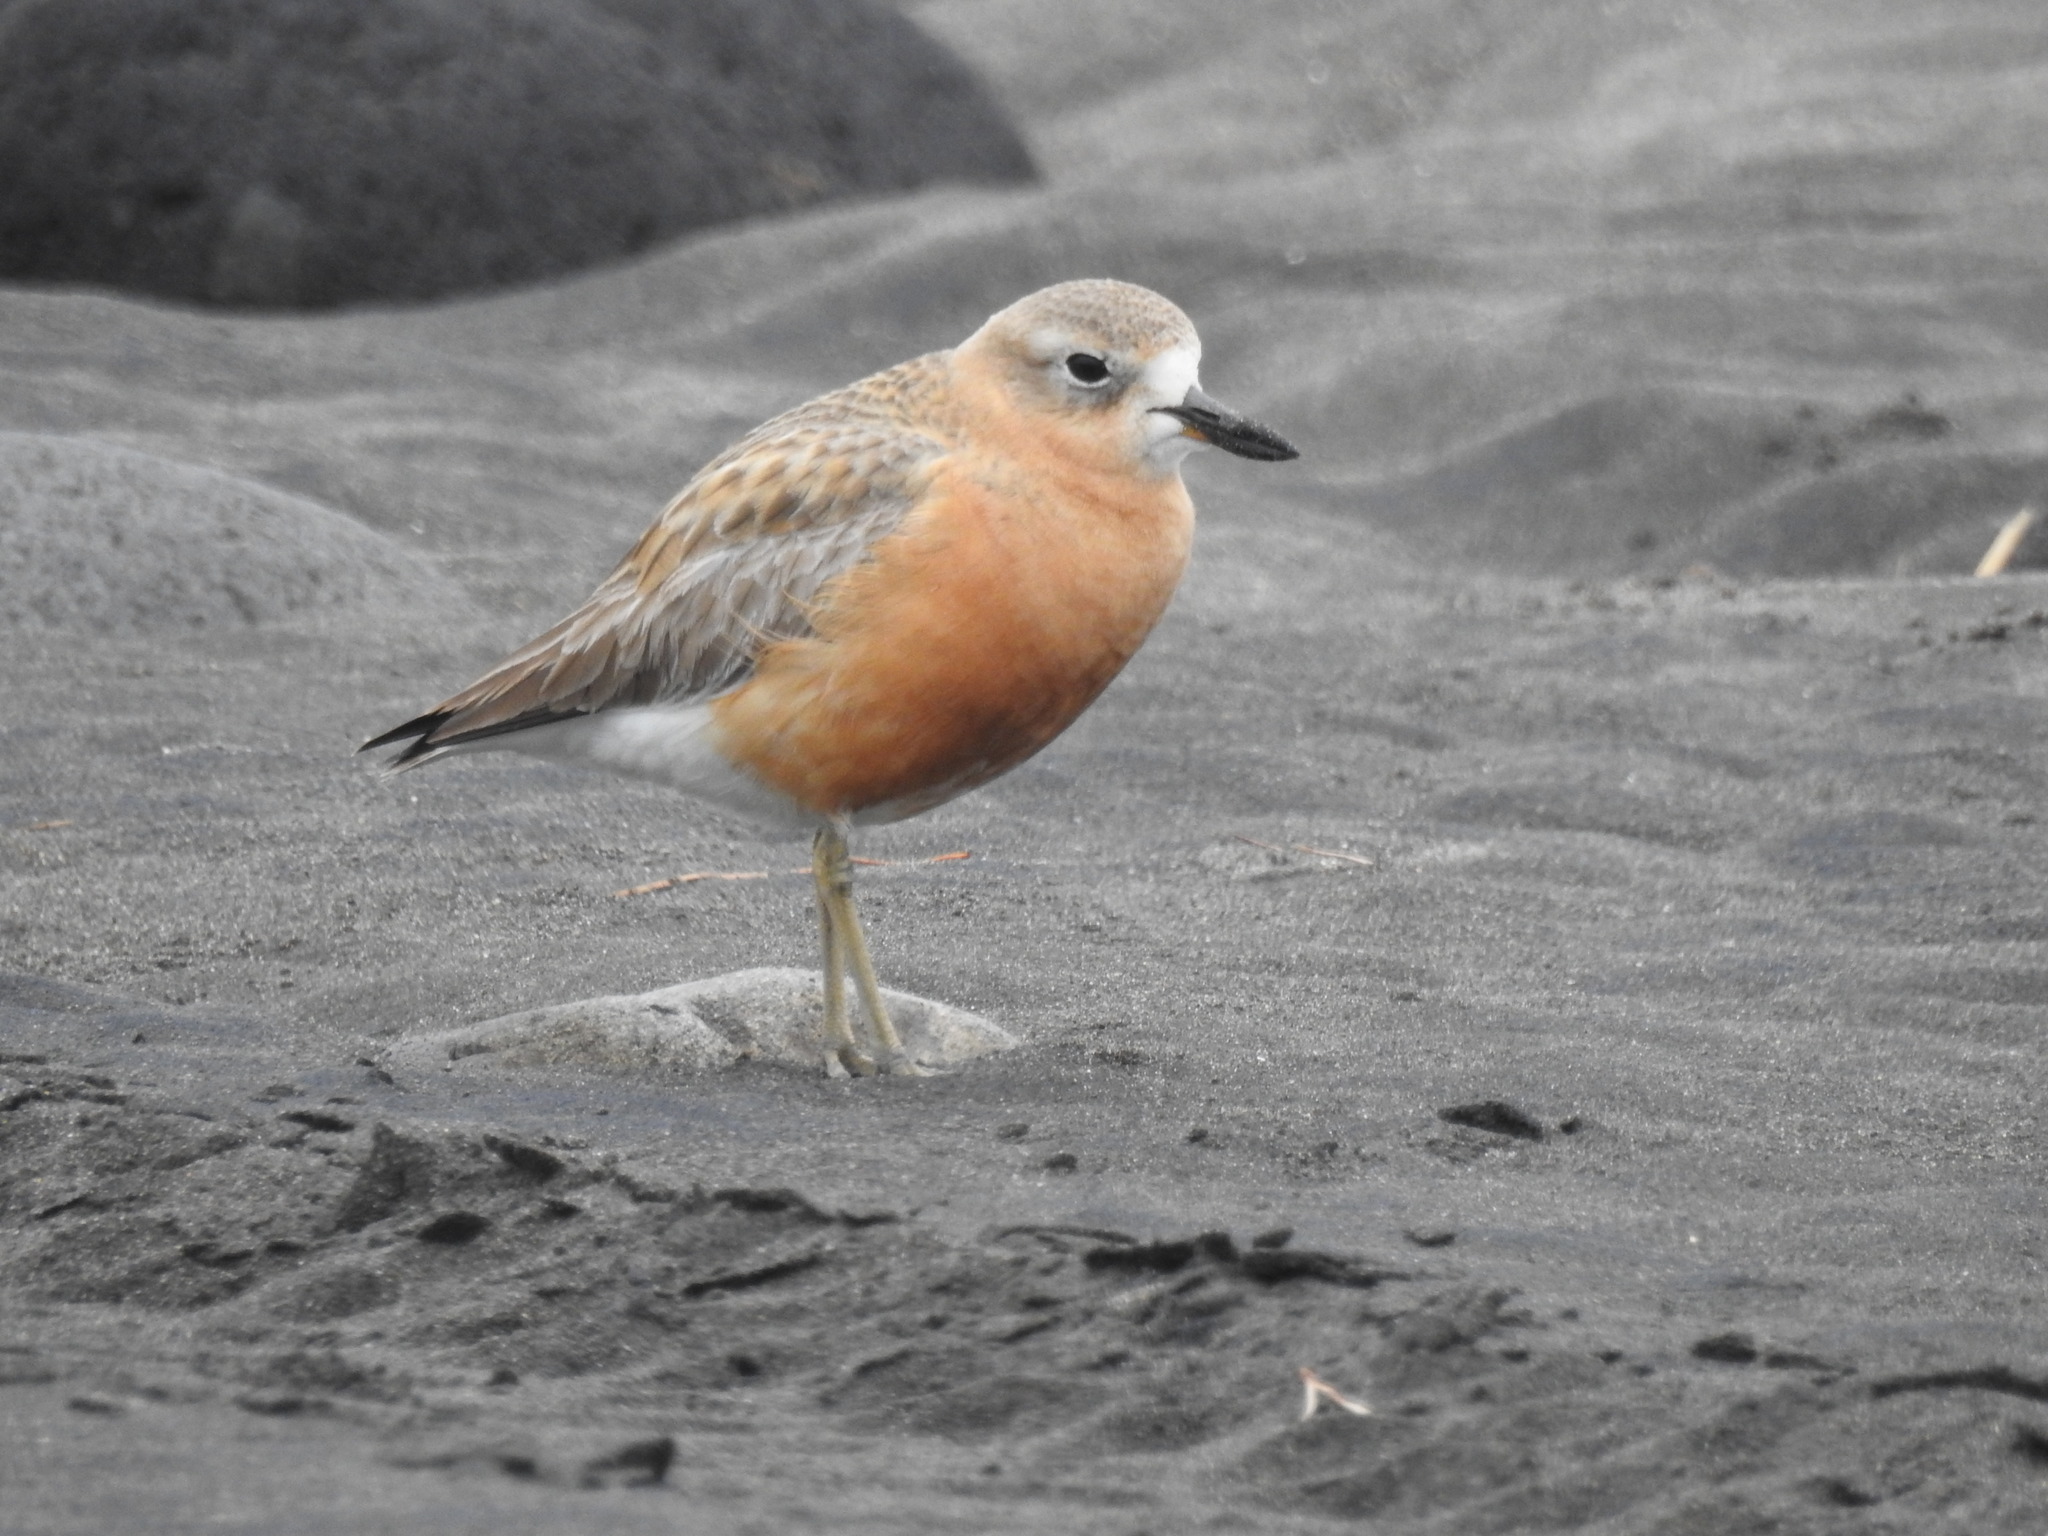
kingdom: Animalia
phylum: Chordata
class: Aves
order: Charadriiformes
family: Charadriidae
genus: Anarhynchus
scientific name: Anarhynchus
